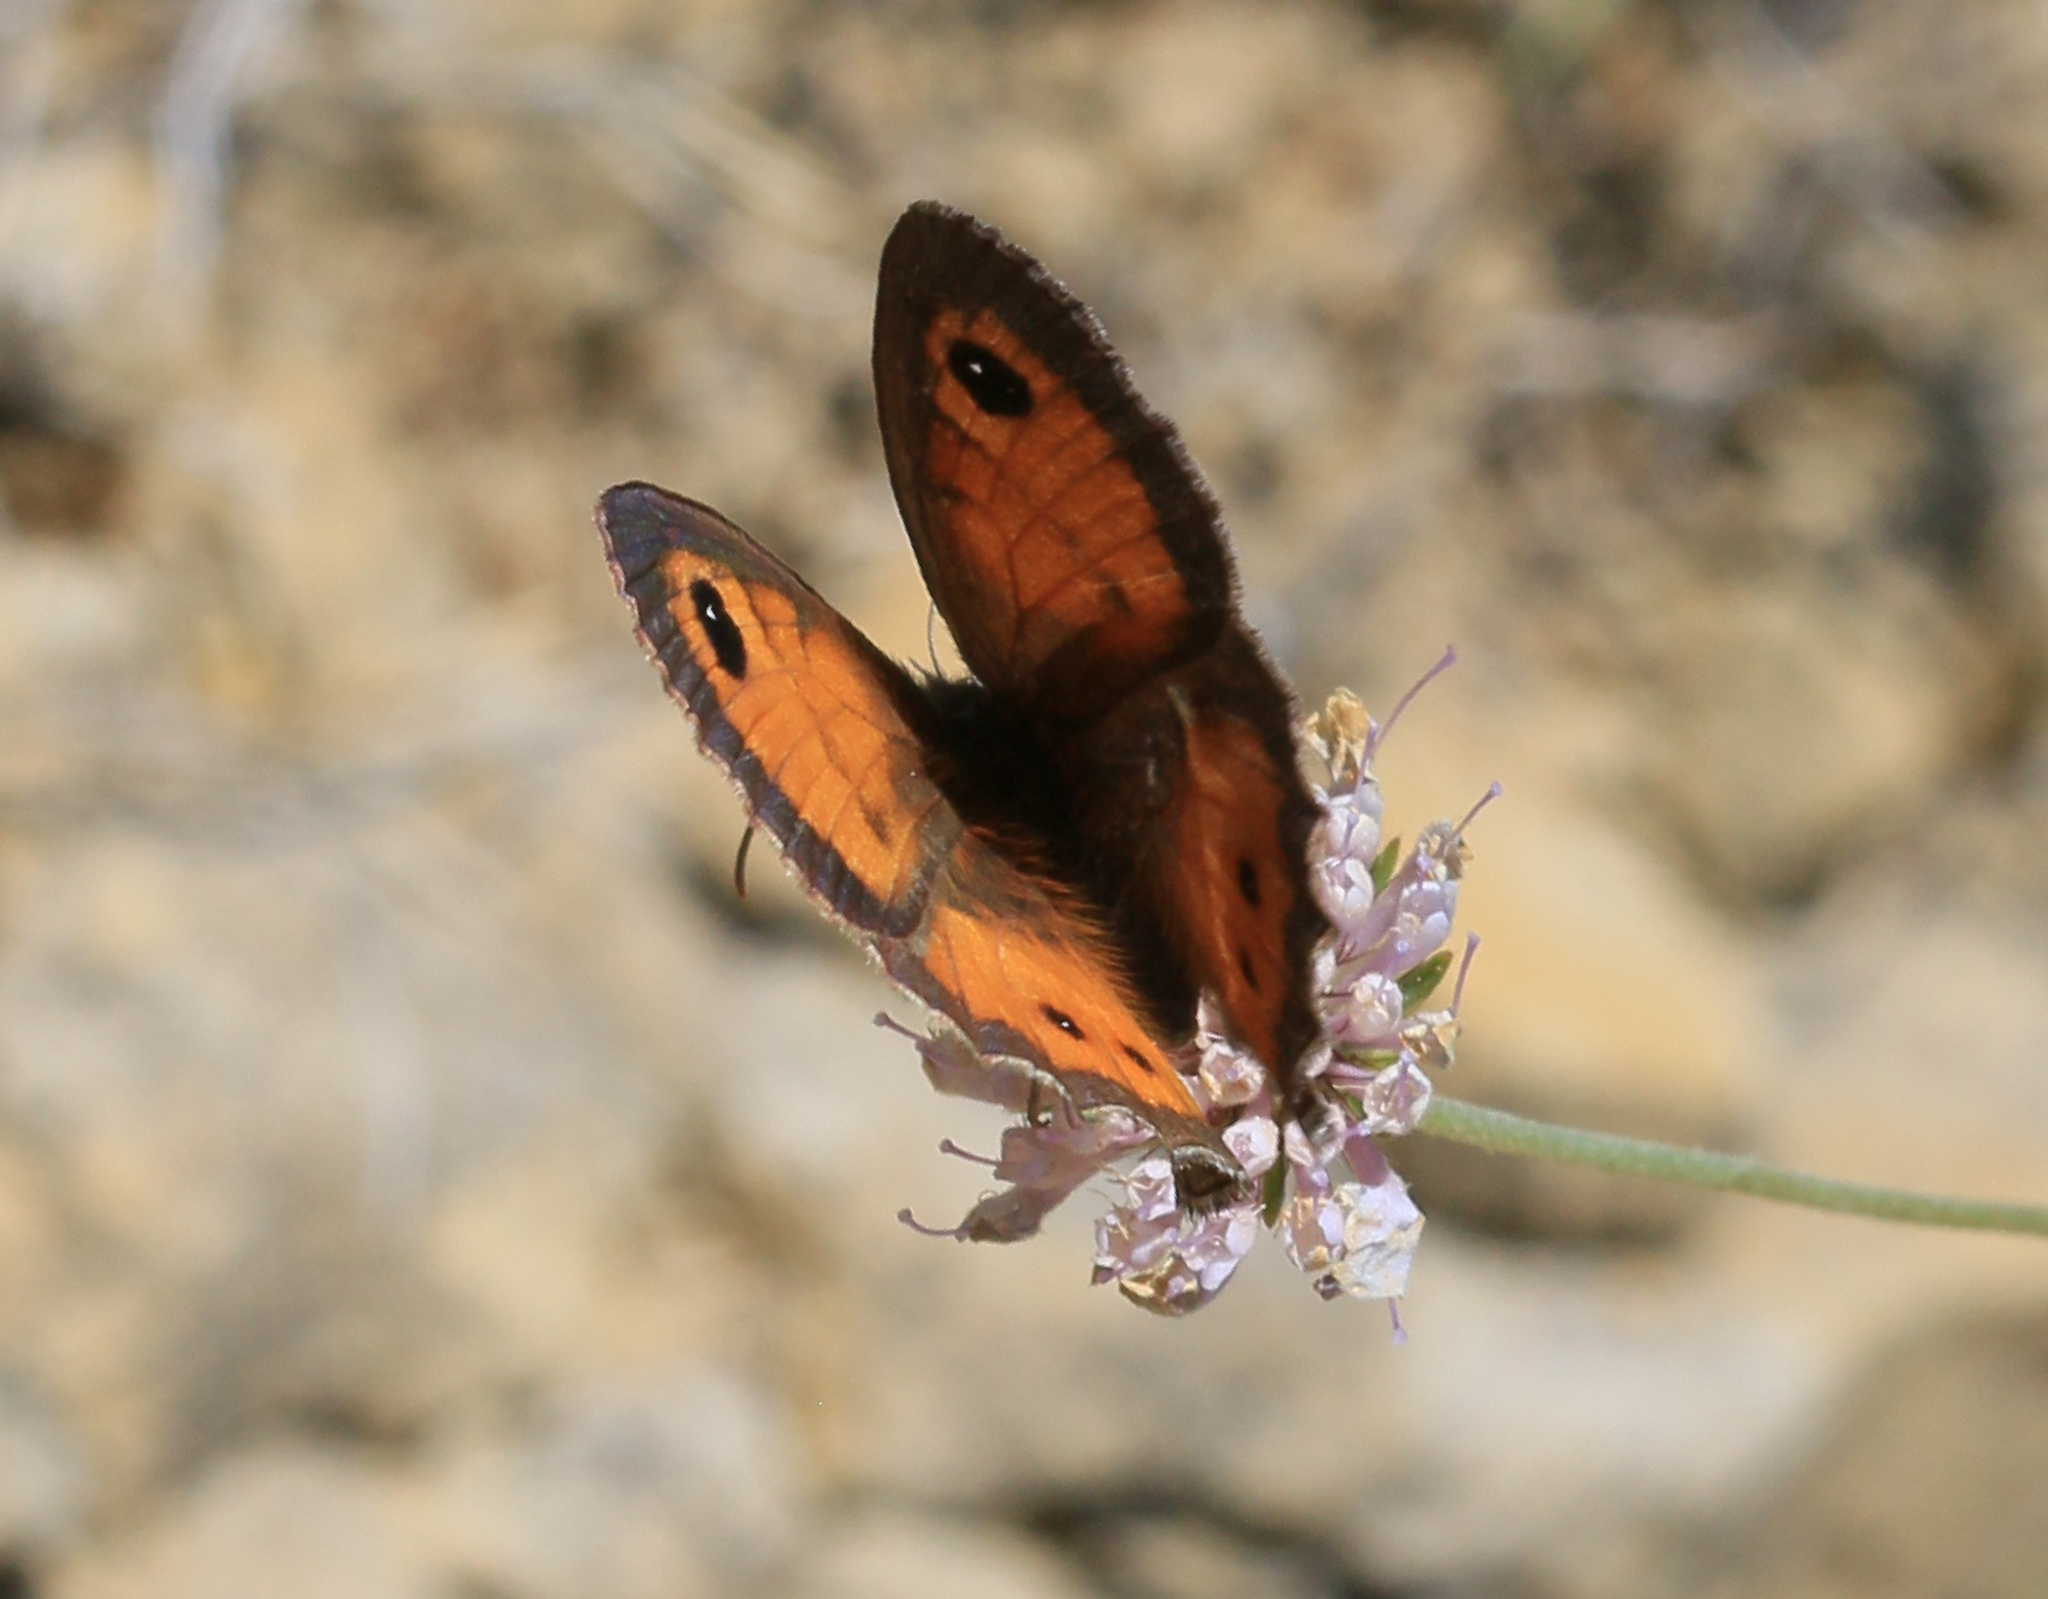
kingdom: Animalia
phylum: Arthropoda
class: Insecta
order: Lepidoptera
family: Nymphalidae
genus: Pyronia
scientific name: Pyronia bathseba
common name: Spanish gatekeeper
